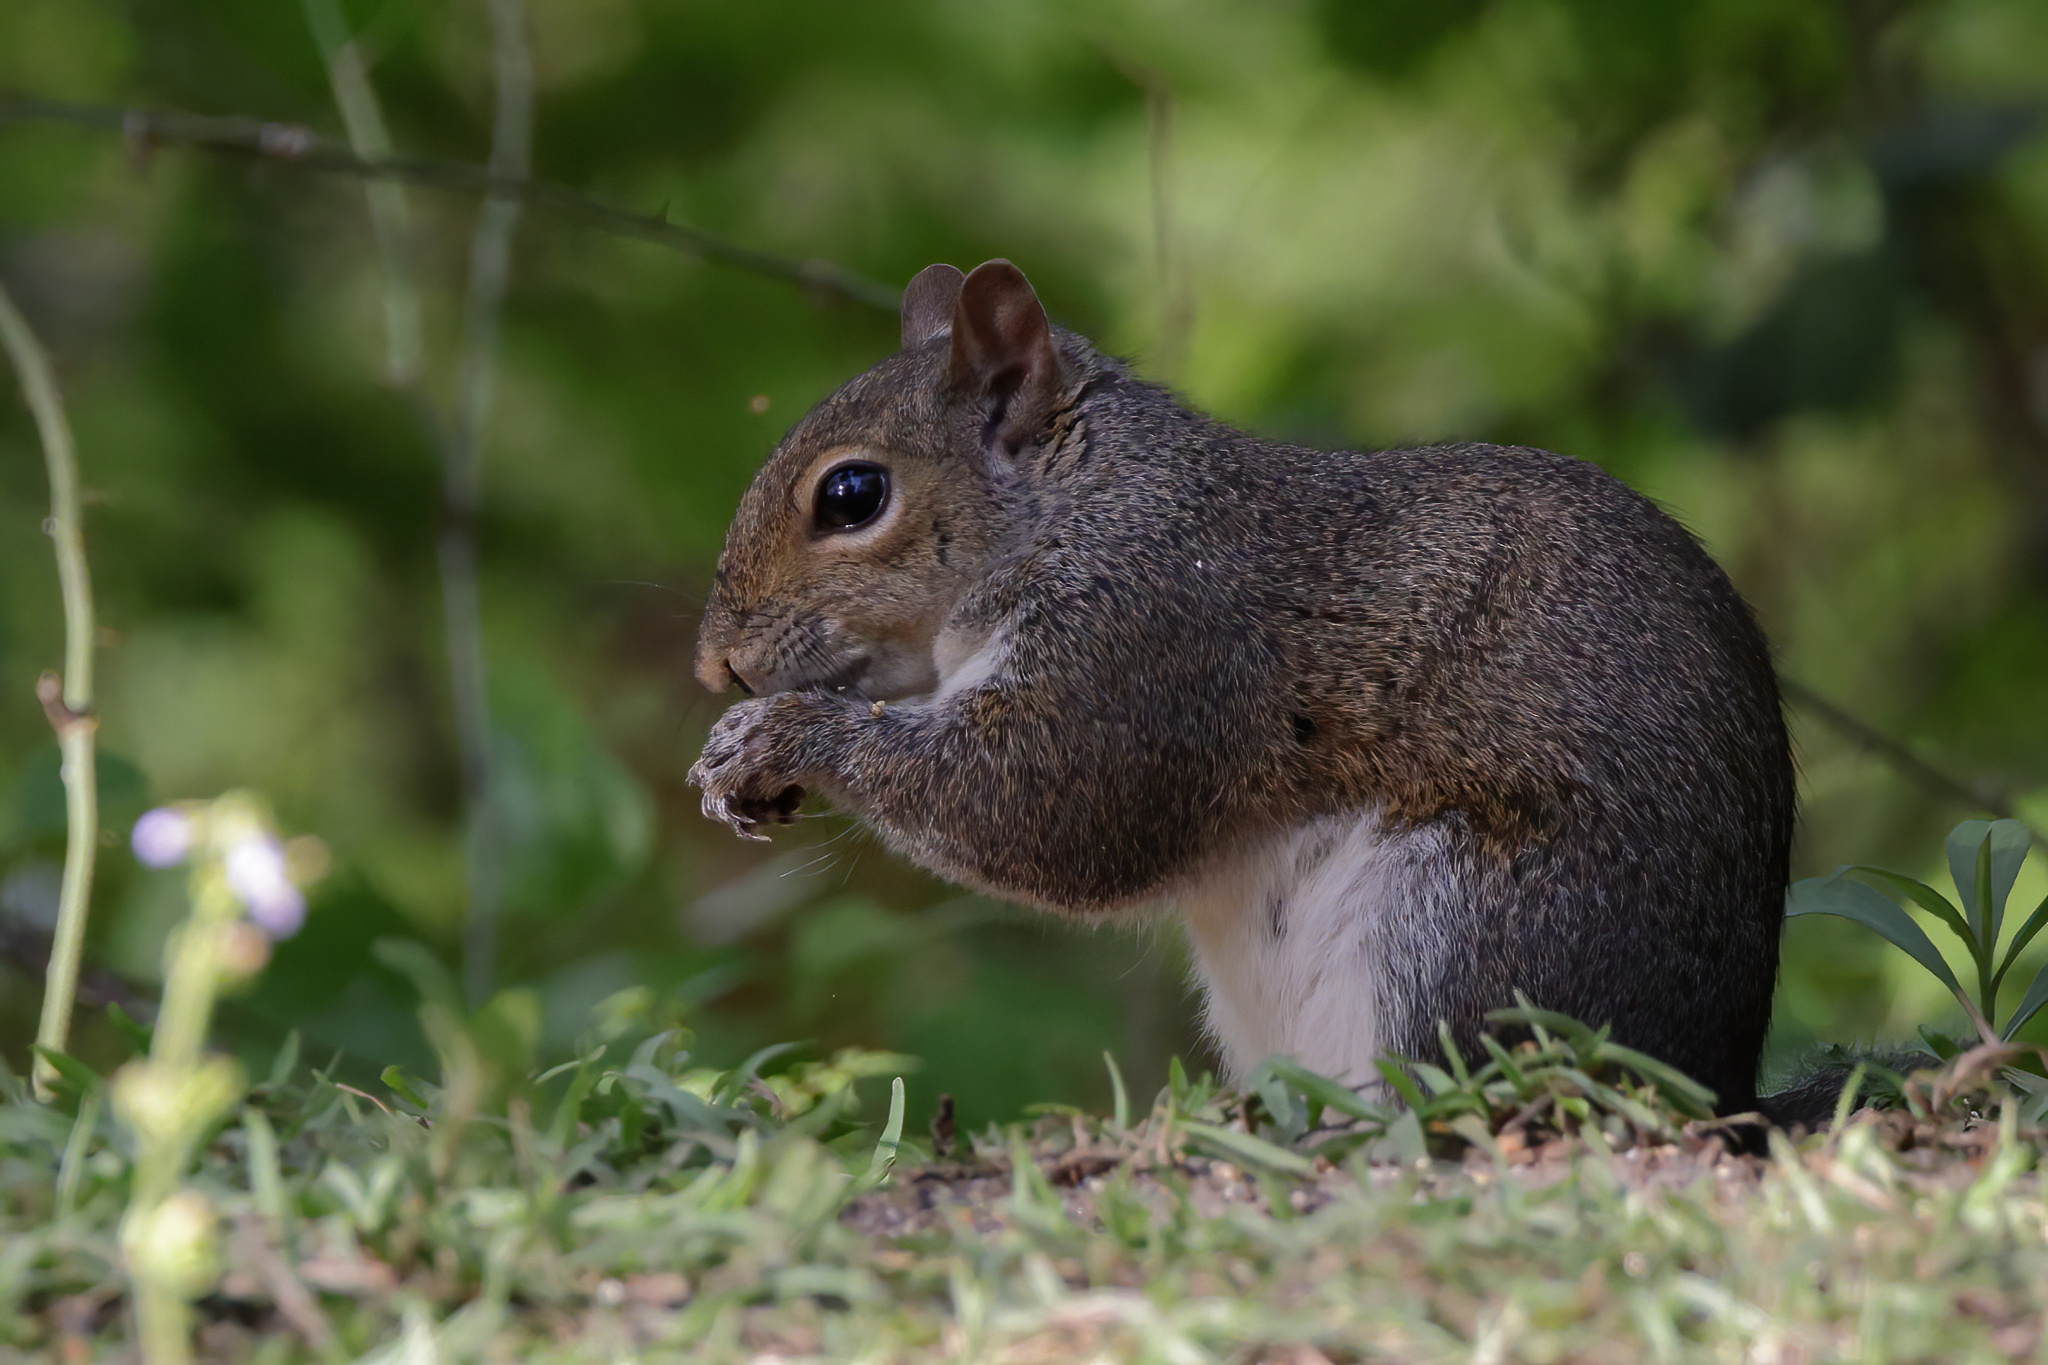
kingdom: Animalia
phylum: Chordata
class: Mammalia
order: Rodentia
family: Sciuridae
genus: Sciurus
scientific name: Sciurus carolinensis
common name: Eastern gray squirrel
